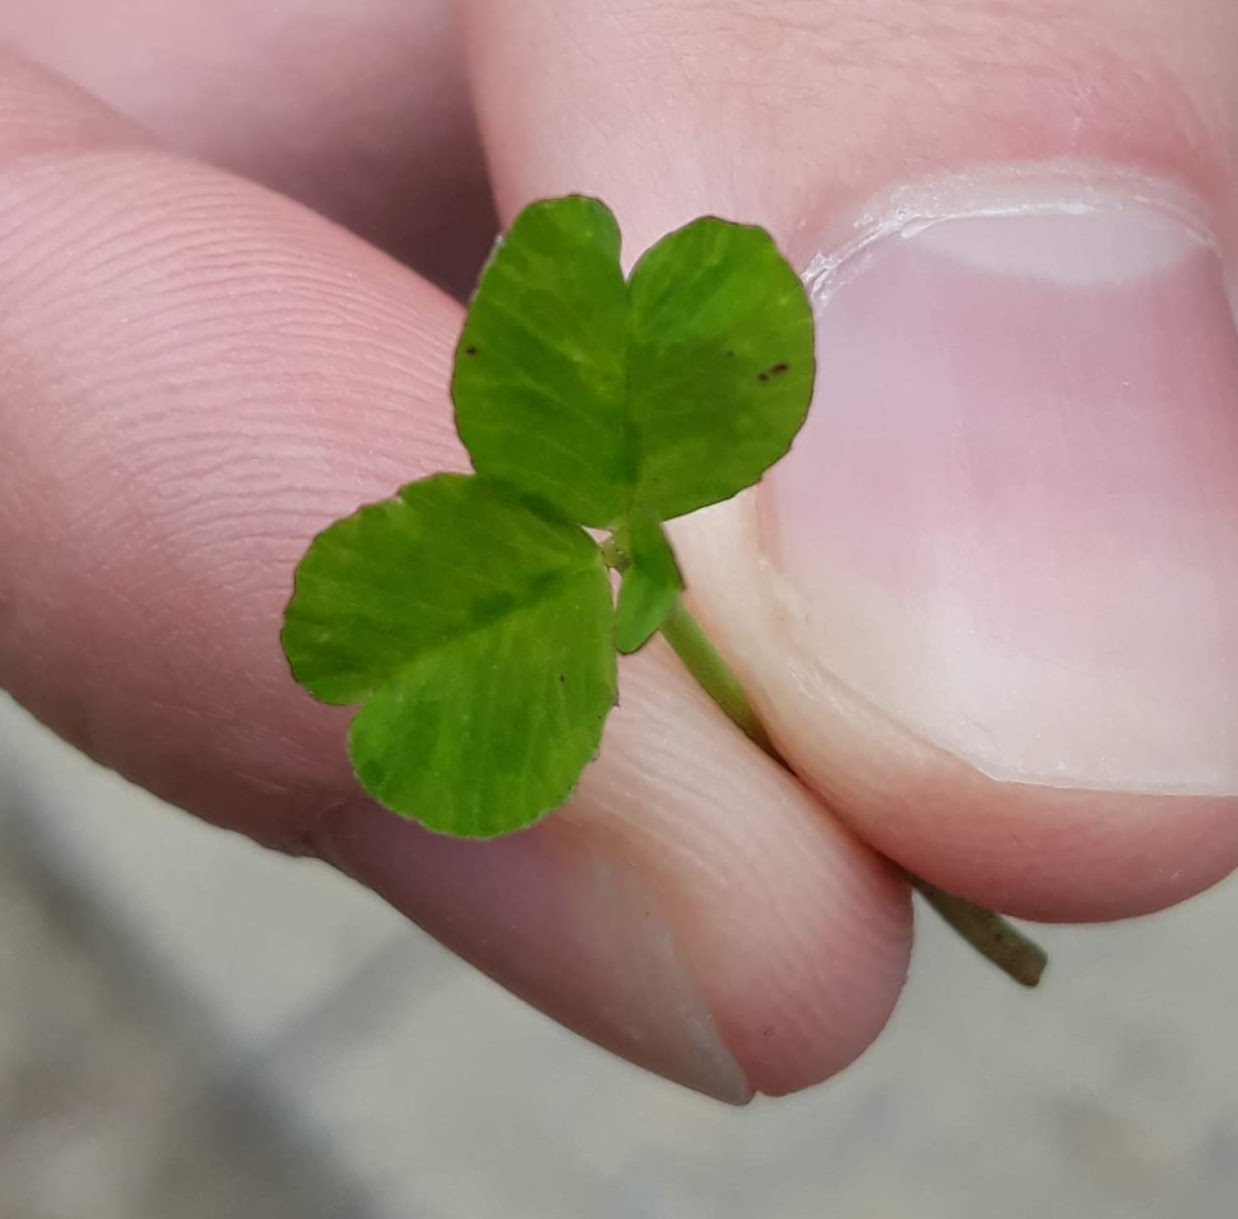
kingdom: Plantae
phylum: Tracheophyta
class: Magnoliopsida
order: Fabales
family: Fabaceae
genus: Trifolium
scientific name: Trifolium repens
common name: White clover
